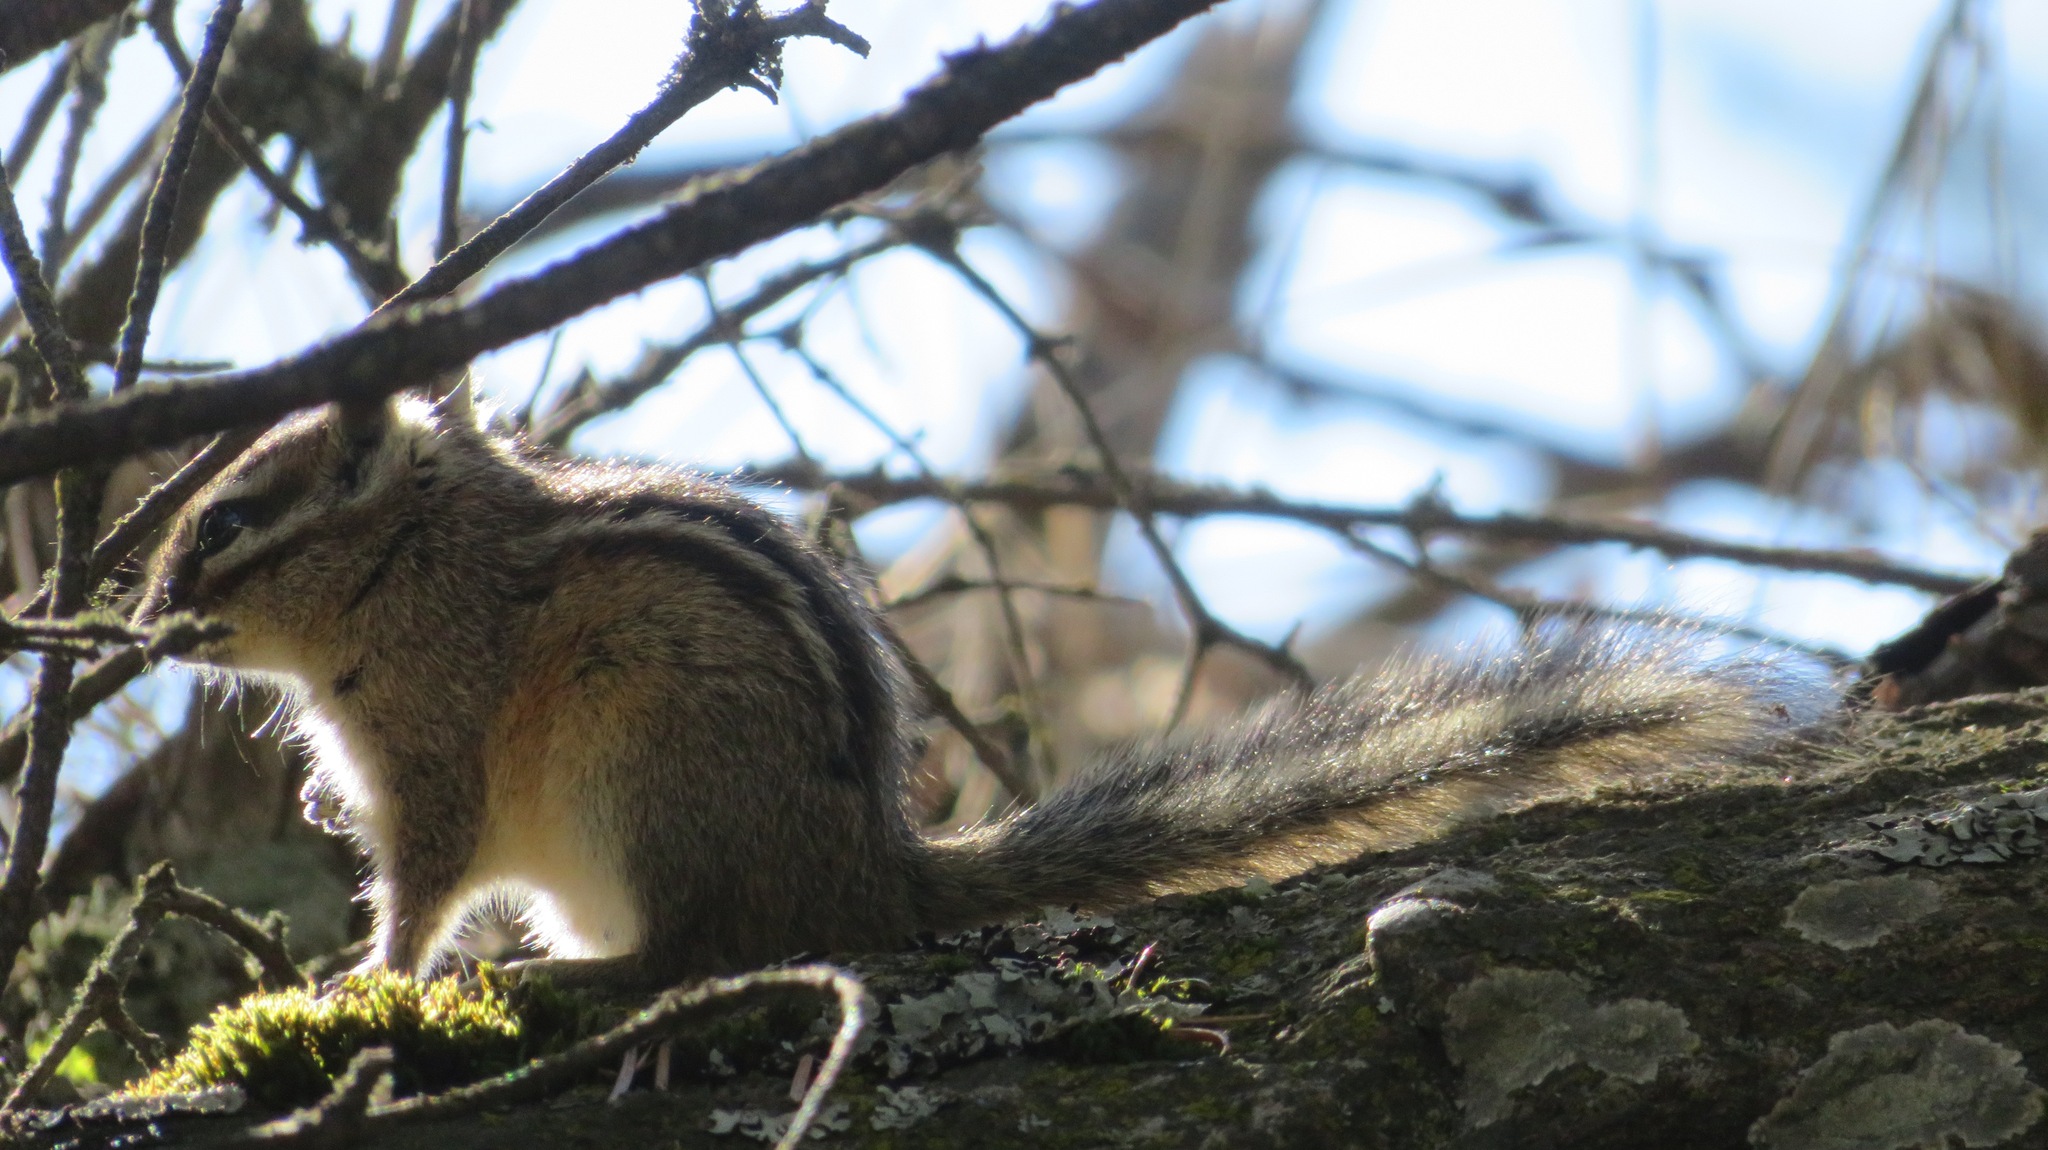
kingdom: Animalia
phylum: Chordata
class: Mammalia
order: Rodentia
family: Sciuridae
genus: Tamias
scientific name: Tamias amoenus
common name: Yellow-pine chipmunk
